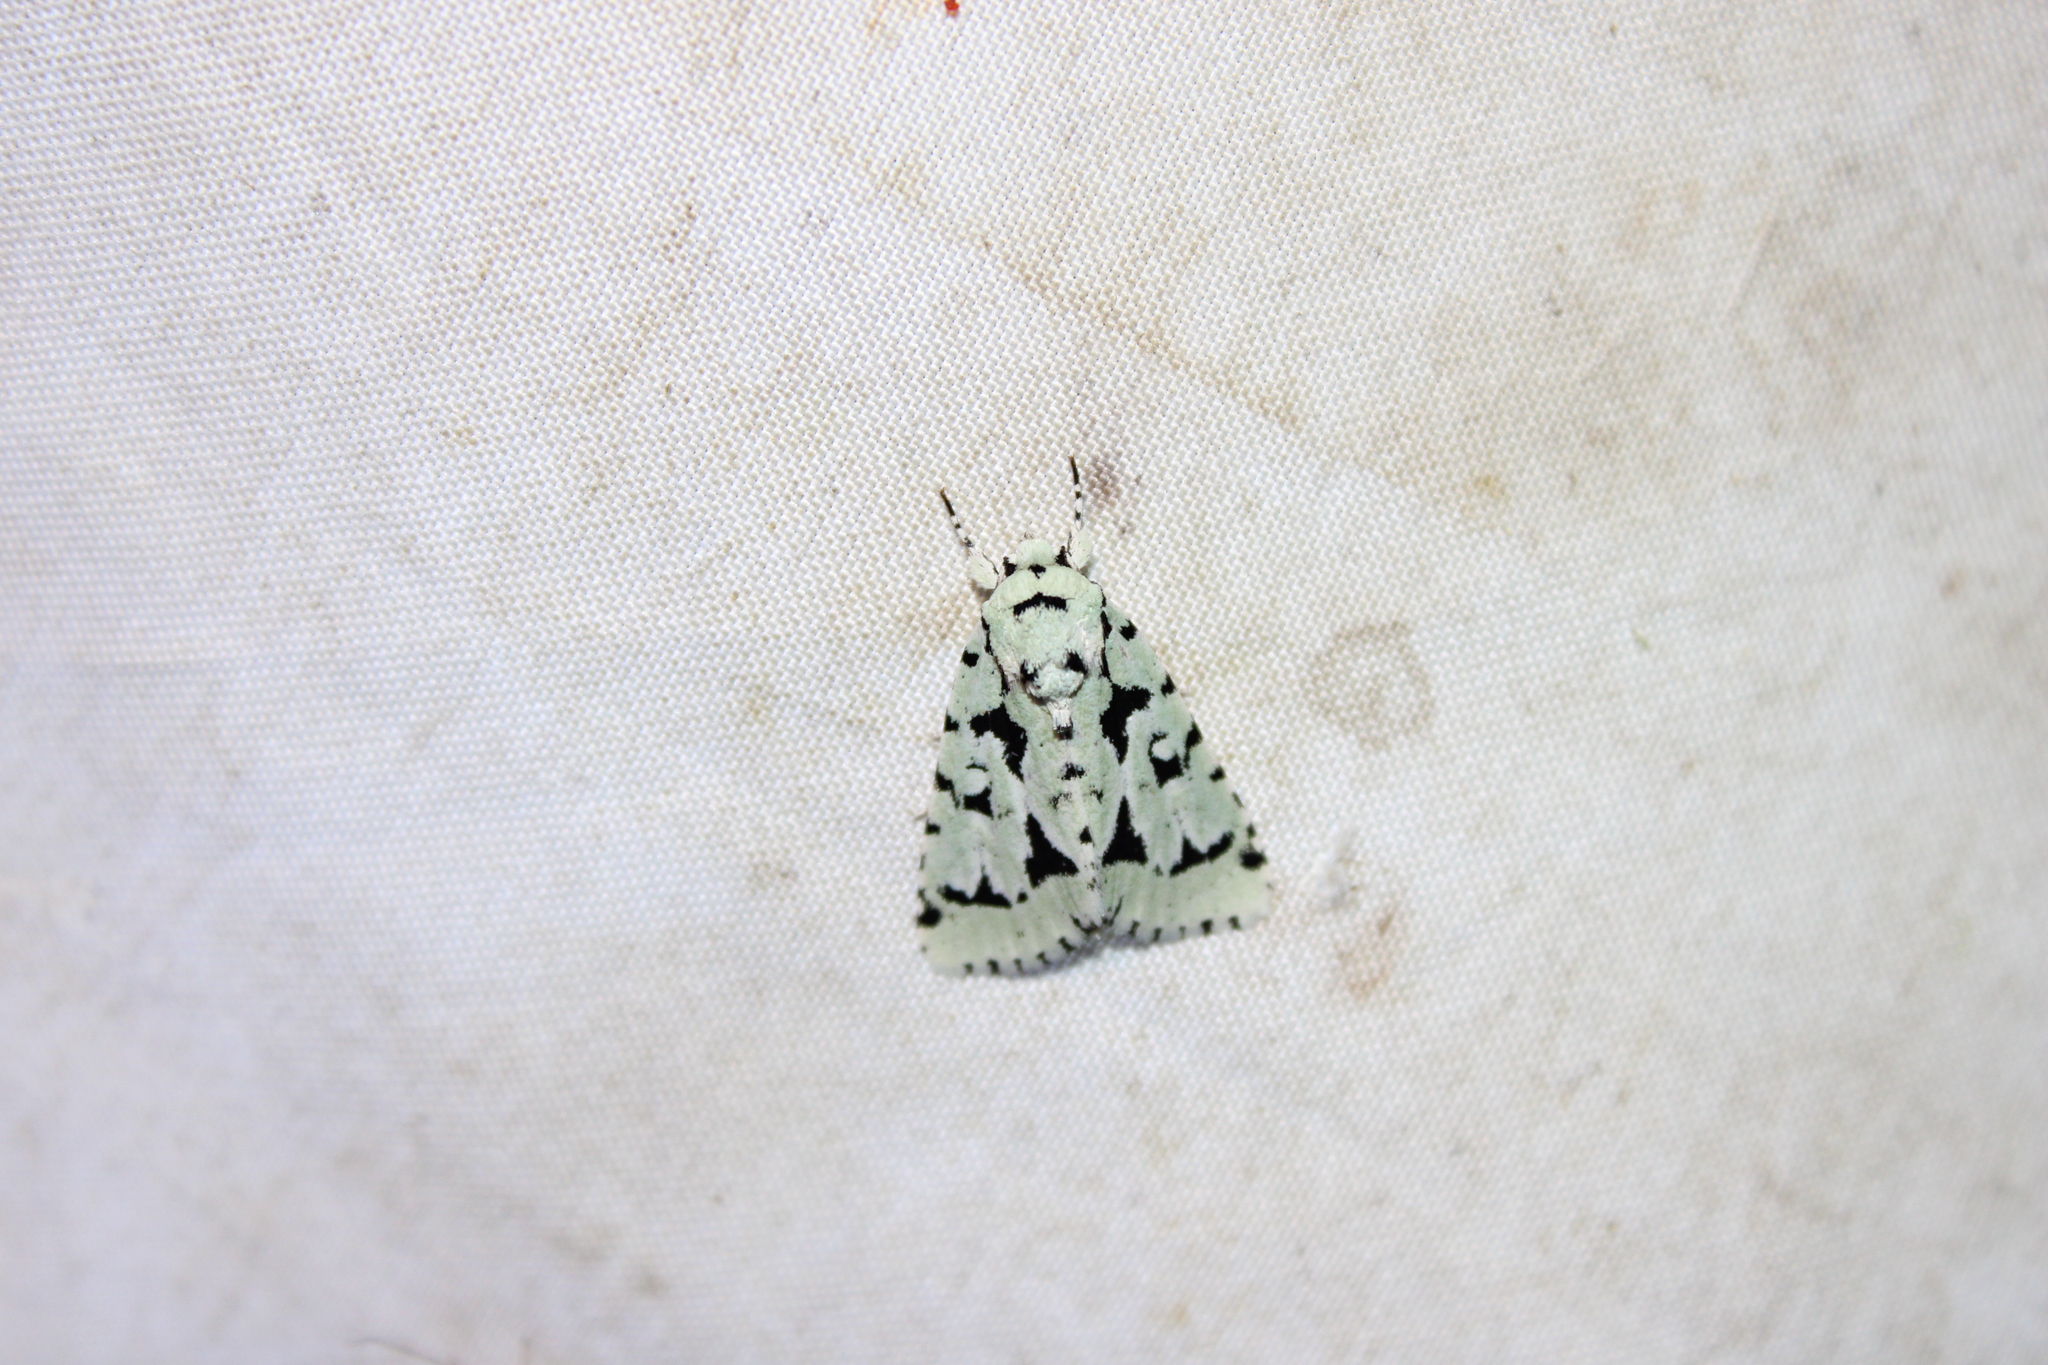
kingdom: Animalia
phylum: Arthropoda
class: Insecta
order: Lepidoptera
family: Noctuidae
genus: Acronicta
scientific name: Acronicta fallax
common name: Green marvel
